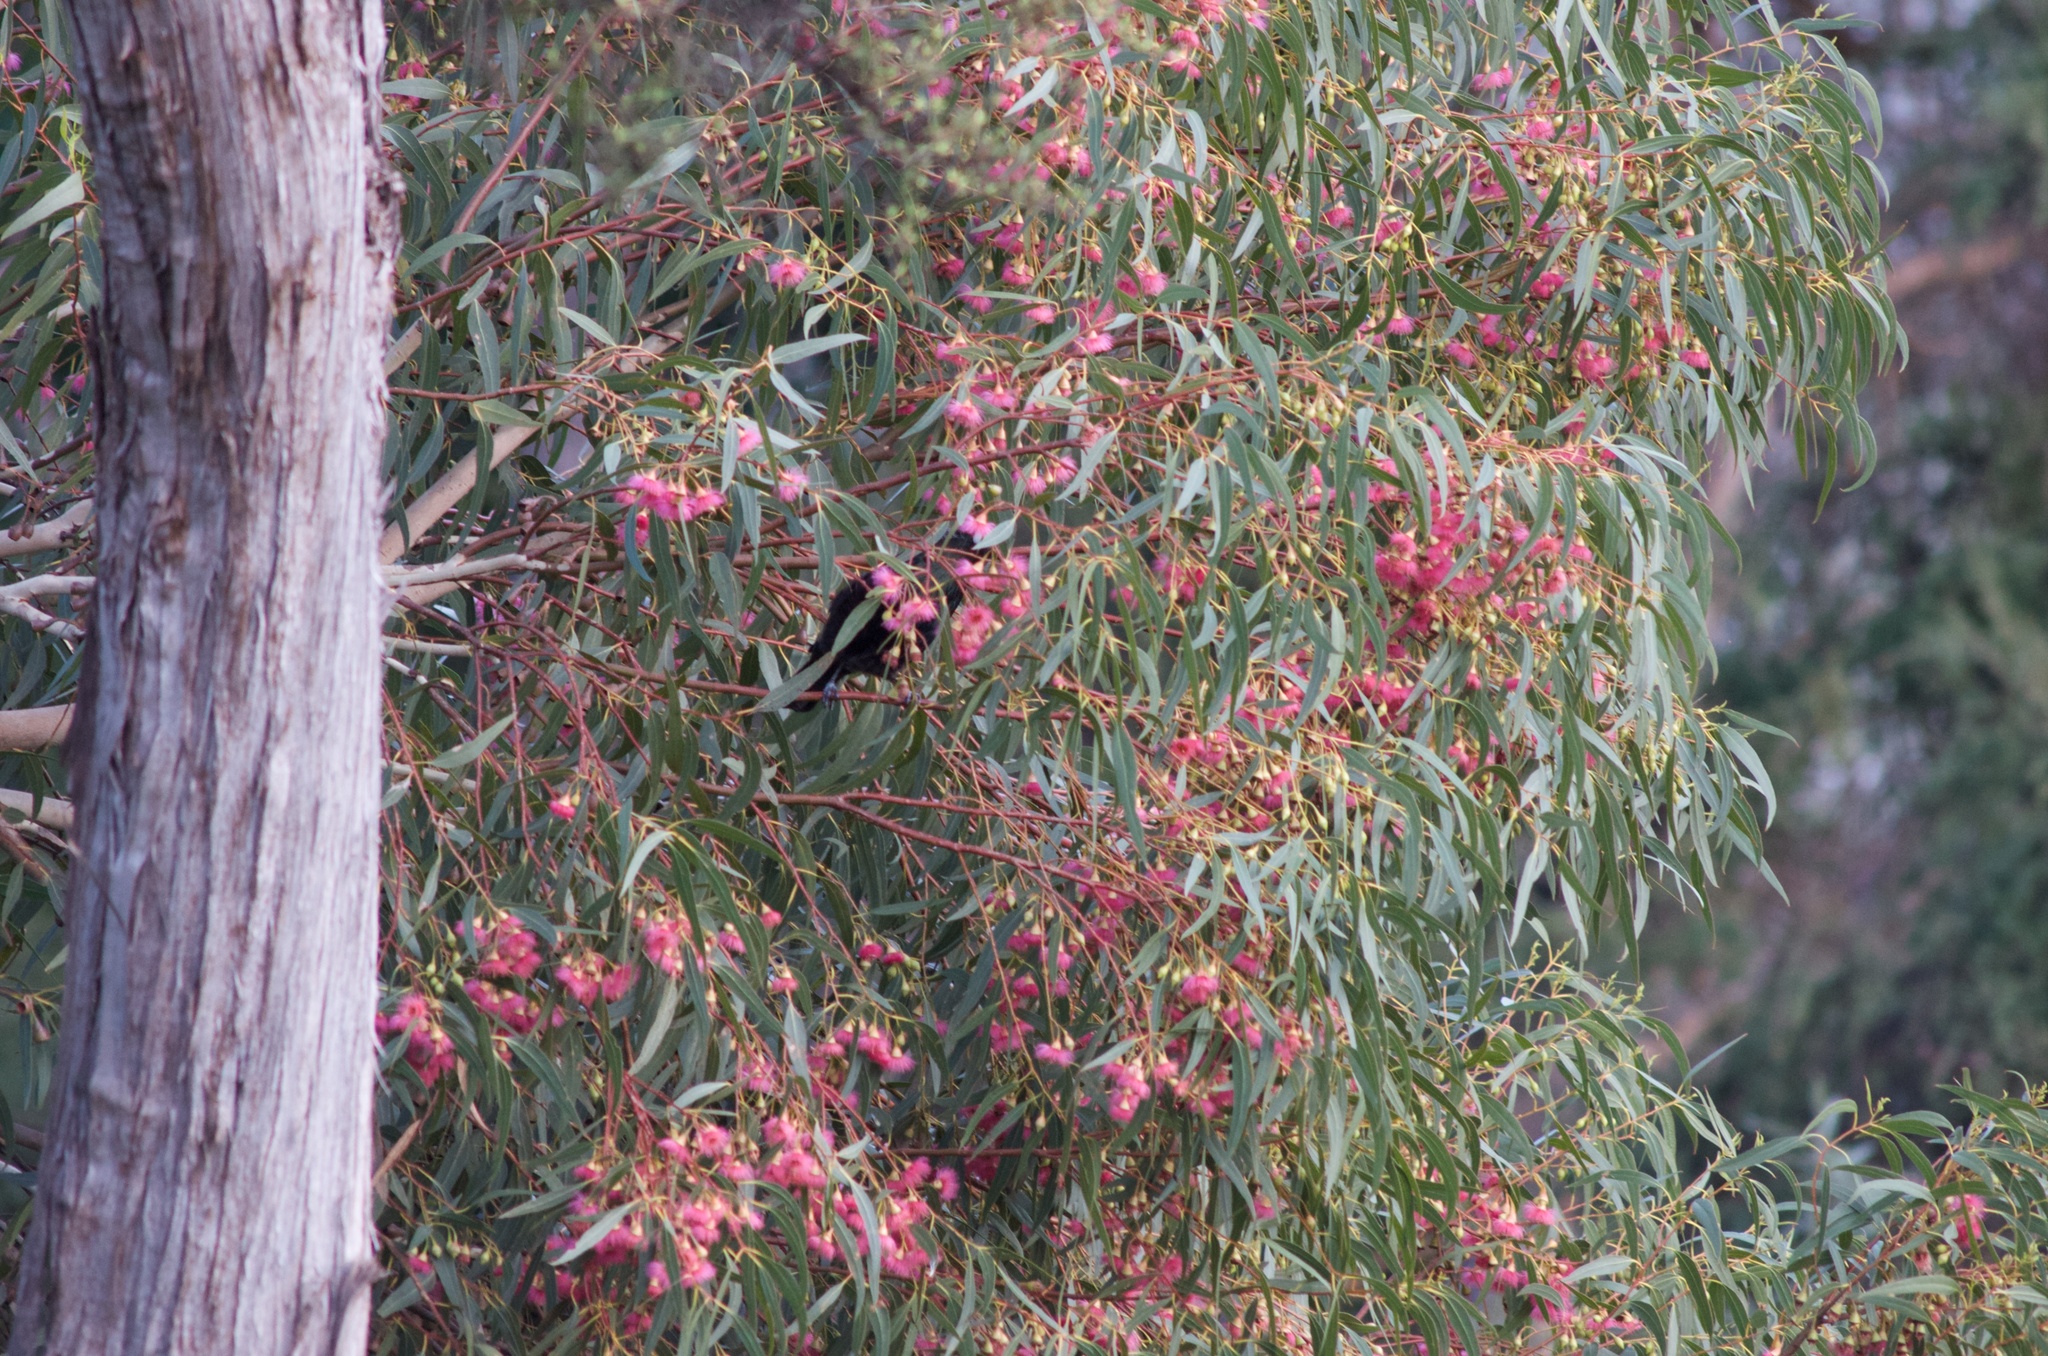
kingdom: Animalia
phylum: Chordata
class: Aves
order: Passeriformes
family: Meliphagidae
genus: Prosthemadera
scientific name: Prosthemadera novaeseelandiae
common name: Tui
